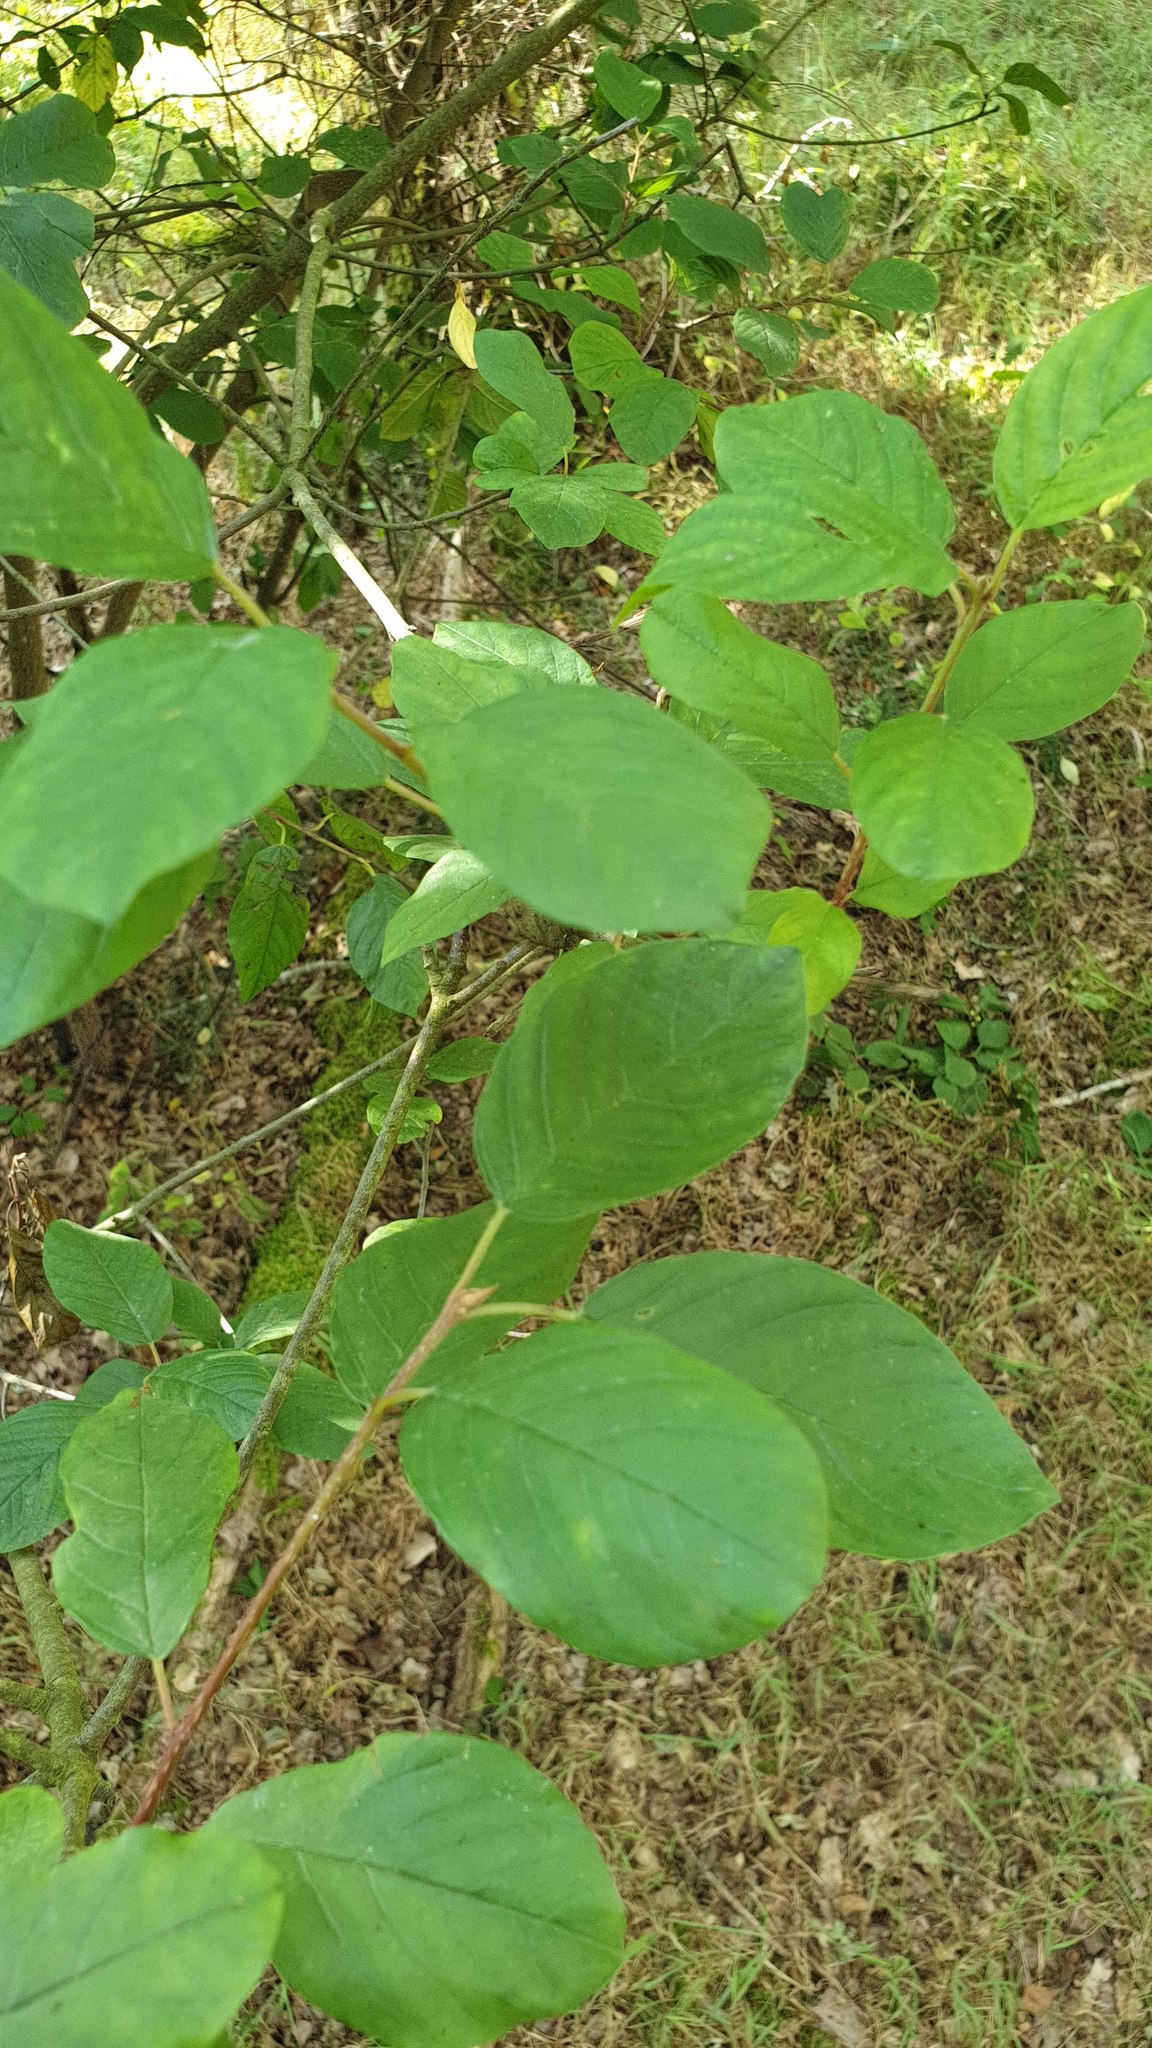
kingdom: Plantae
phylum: Tracheophyta
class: Magnoliopsida
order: Rosales
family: Rhamnaceae
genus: Frangula
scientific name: Frangula alnus
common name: Alder buckthorn
